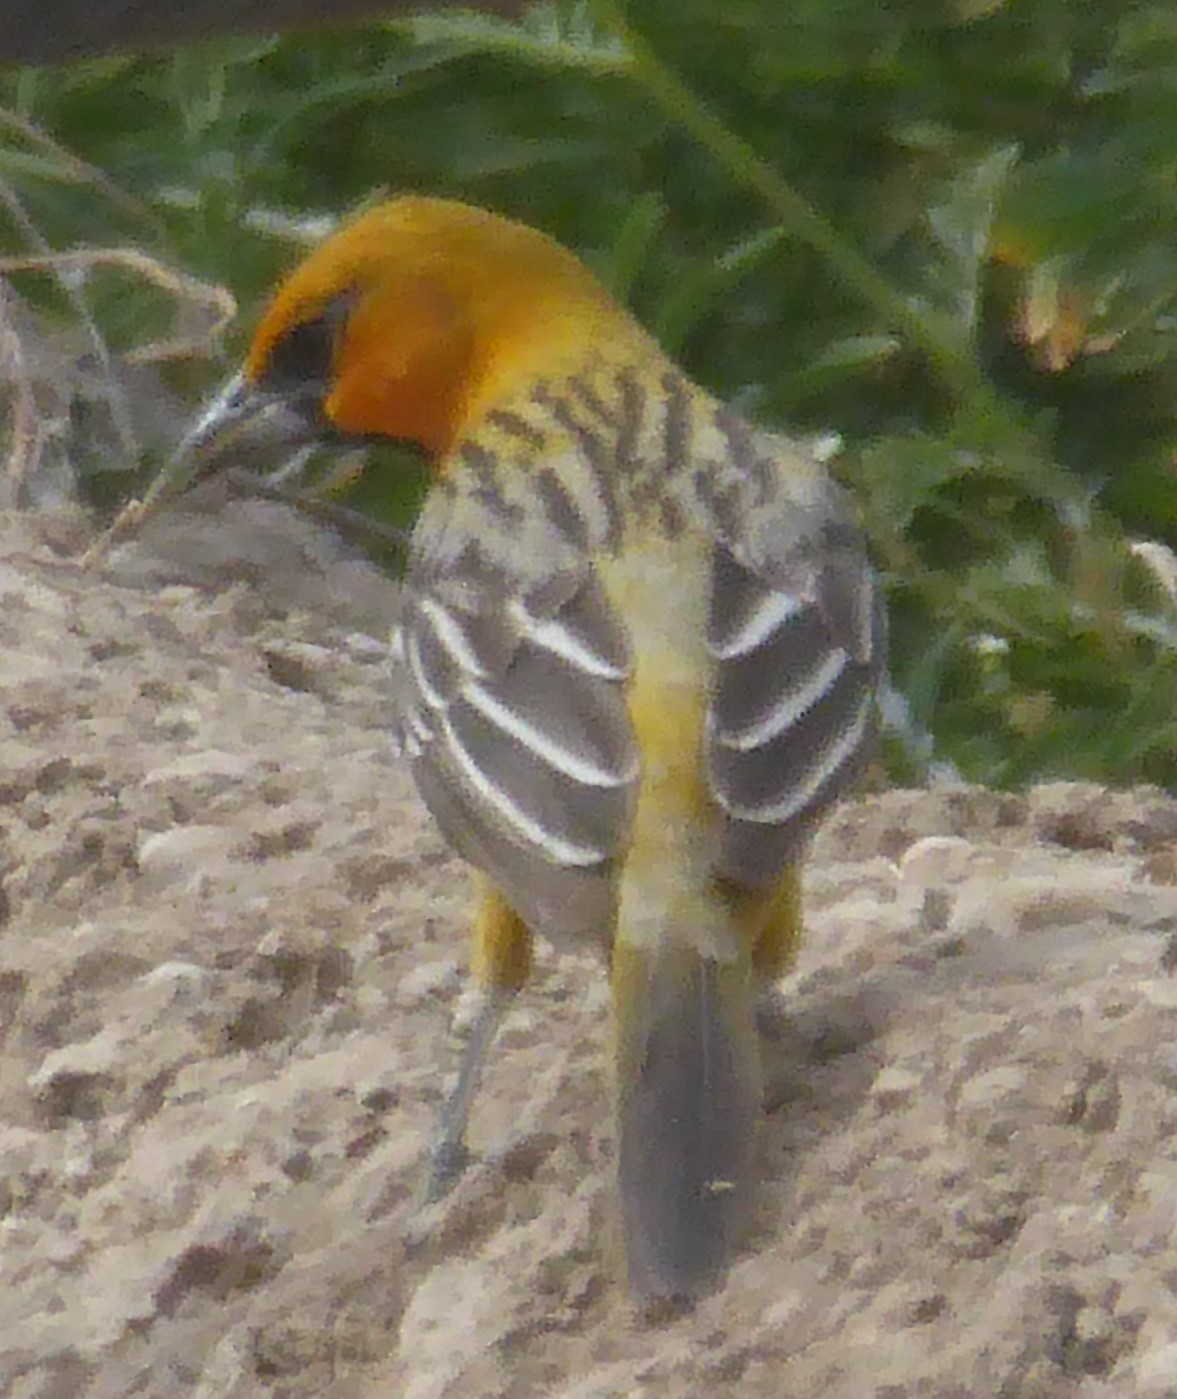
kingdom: Animalia
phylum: Chordata
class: Aves
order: Passeriformes
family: Icteridae
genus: Icterus
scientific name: Icterus pustulatus
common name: Streak-backed oriole
